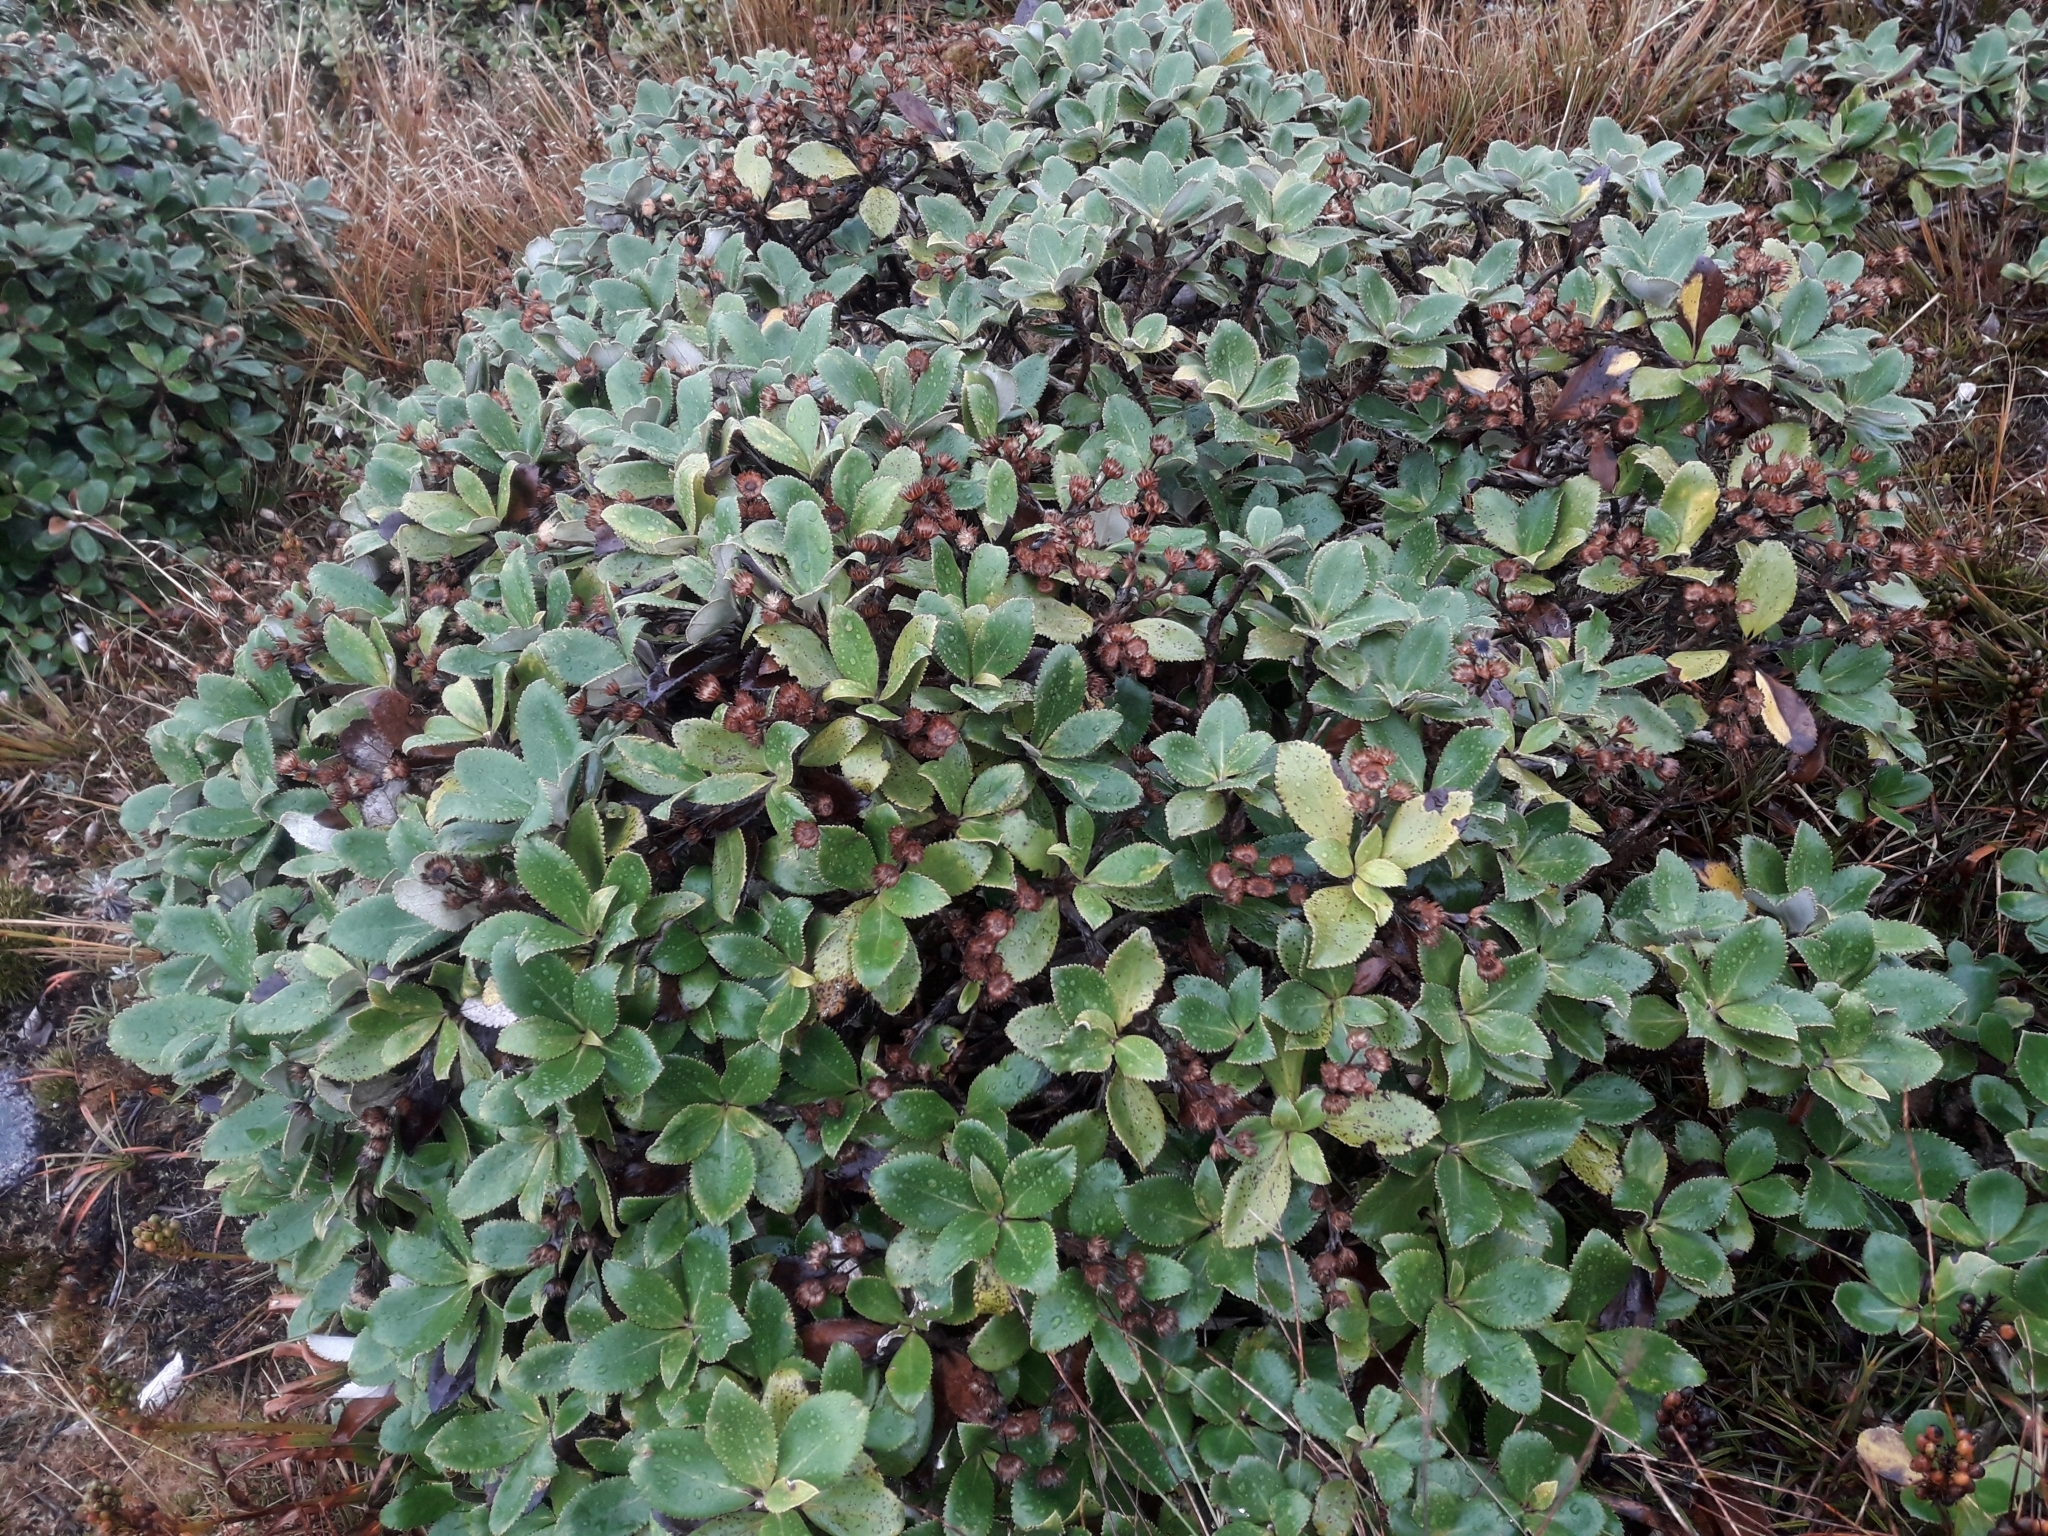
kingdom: Plantae
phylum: Tracheophyta
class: Magnoliopsida
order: Asterales
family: Asteraceae
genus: Macrolearia
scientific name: Macrolearia colensoi
